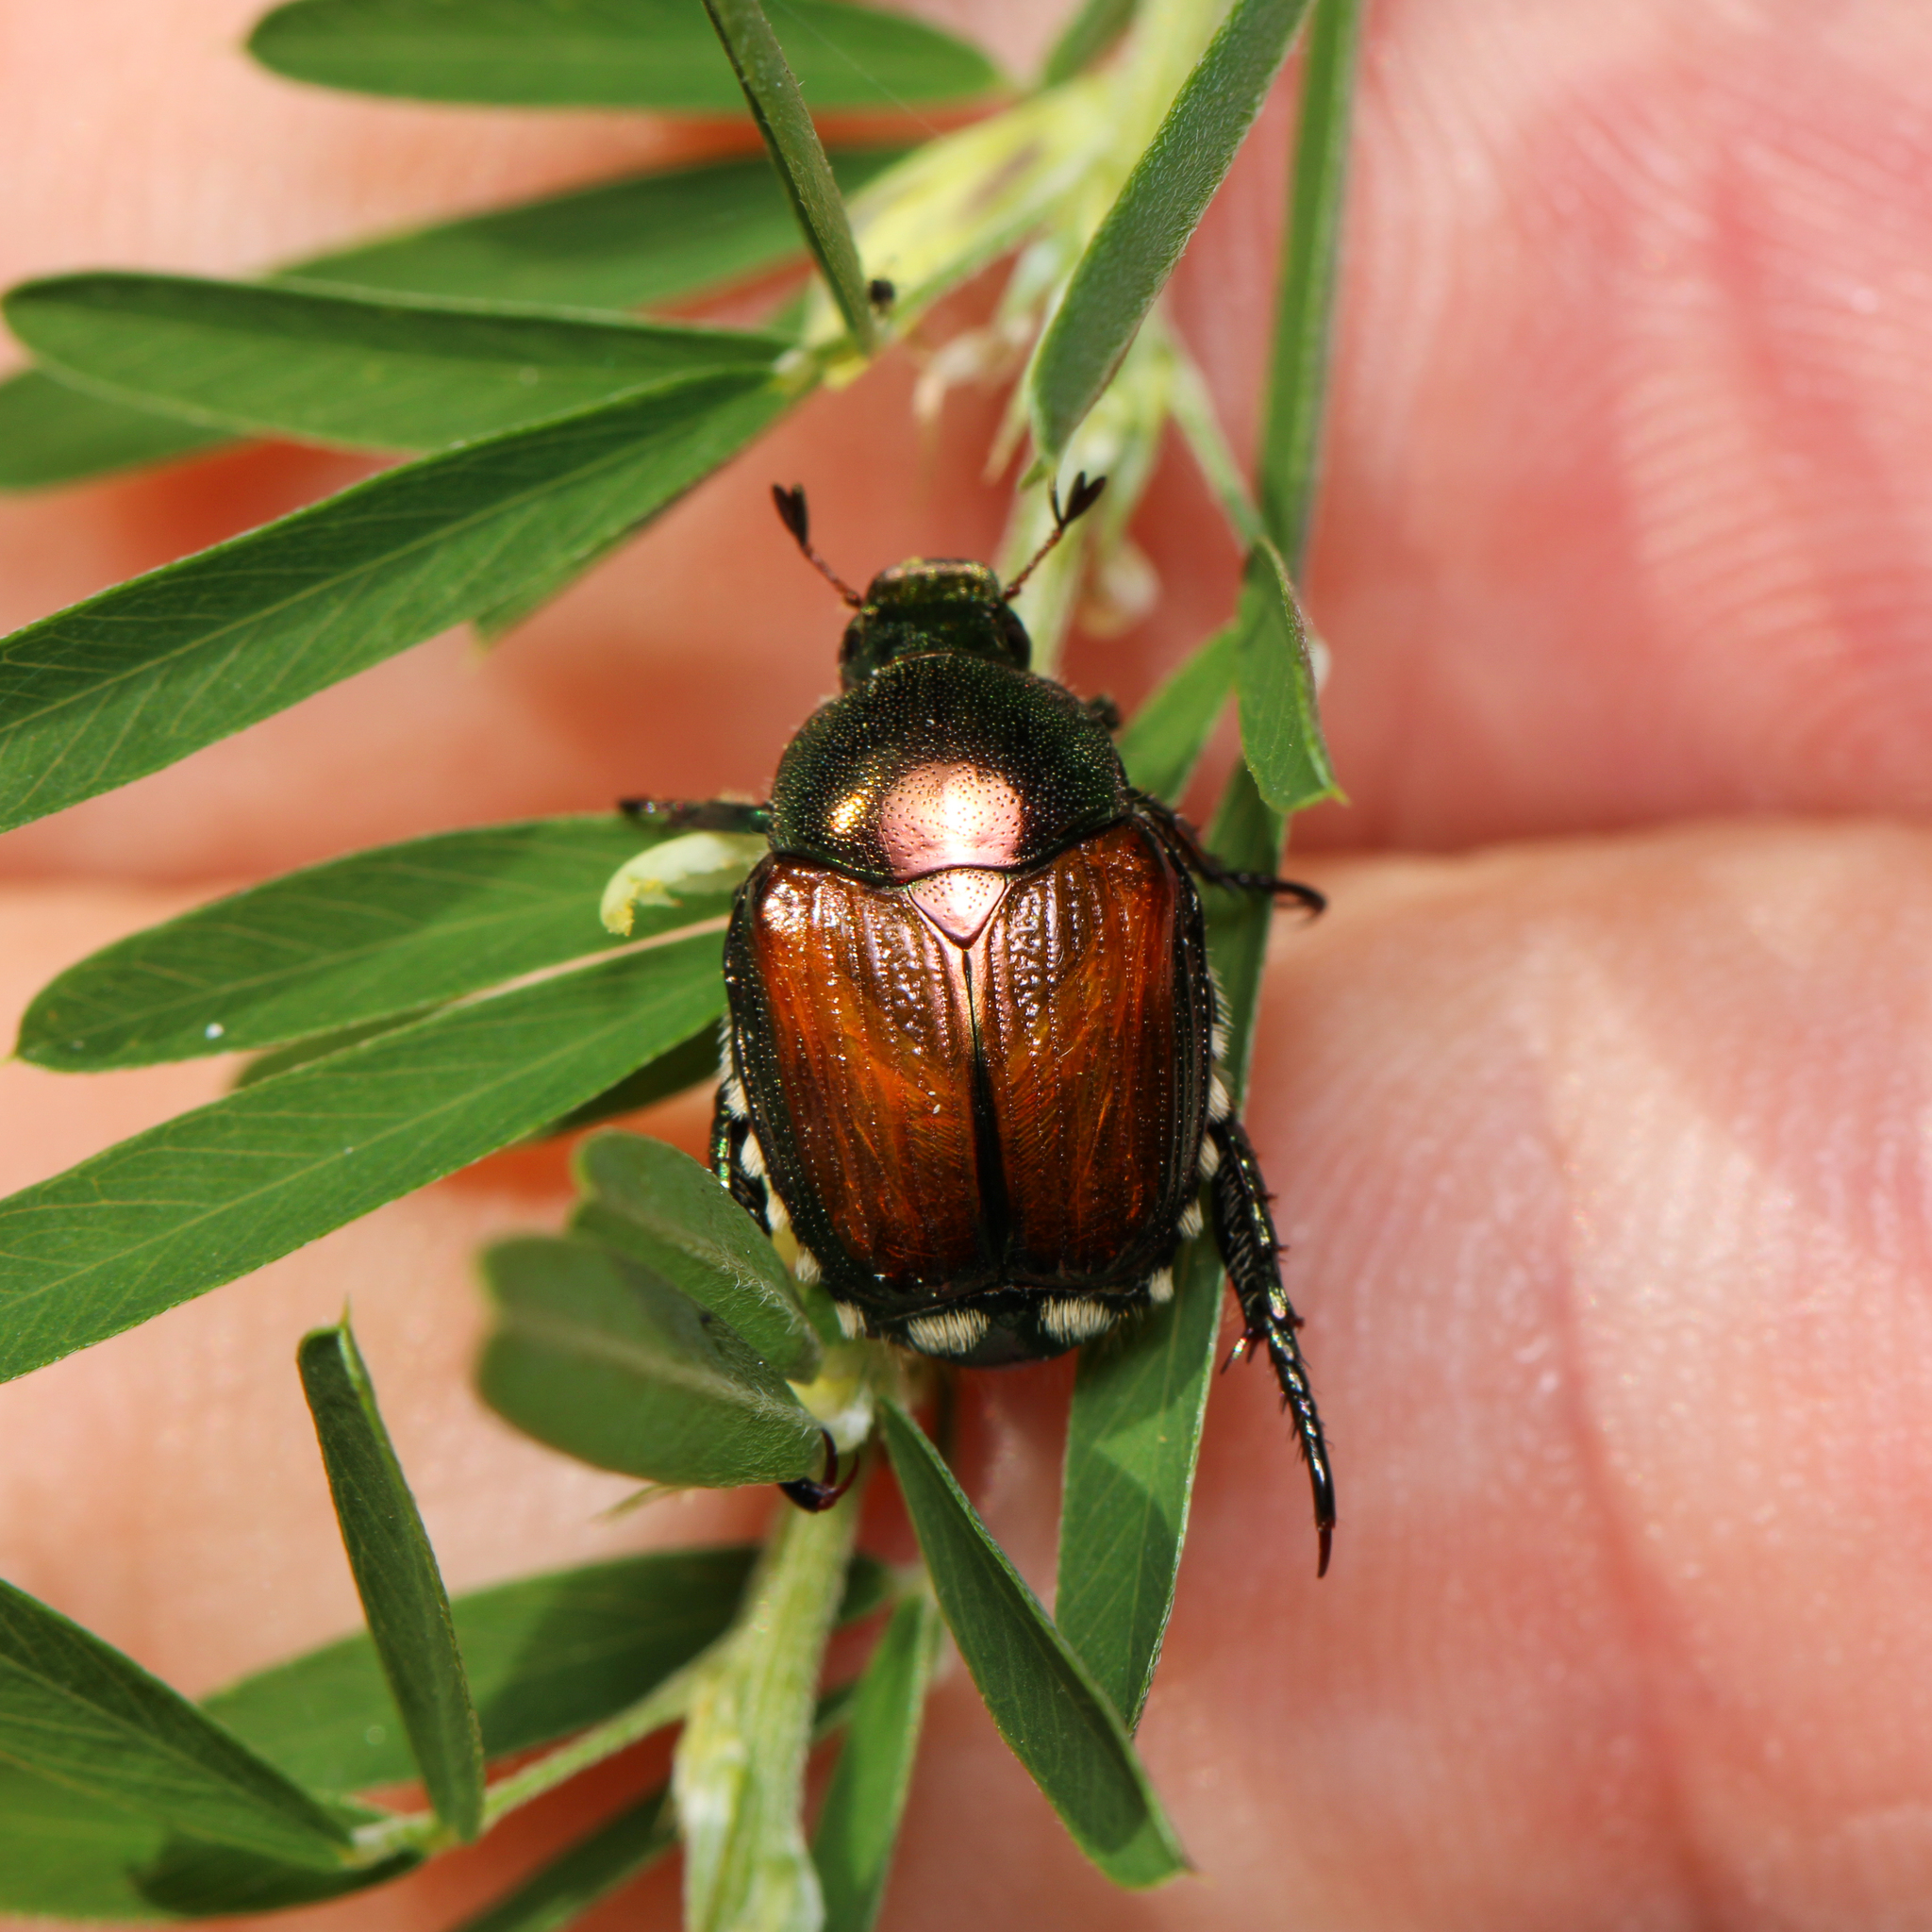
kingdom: Animalia
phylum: Arthropoda
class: Insecta
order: Coleoptera
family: Scarabaeidae
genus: Popillia
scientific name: Popillia japonica
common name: Japanese beetle
